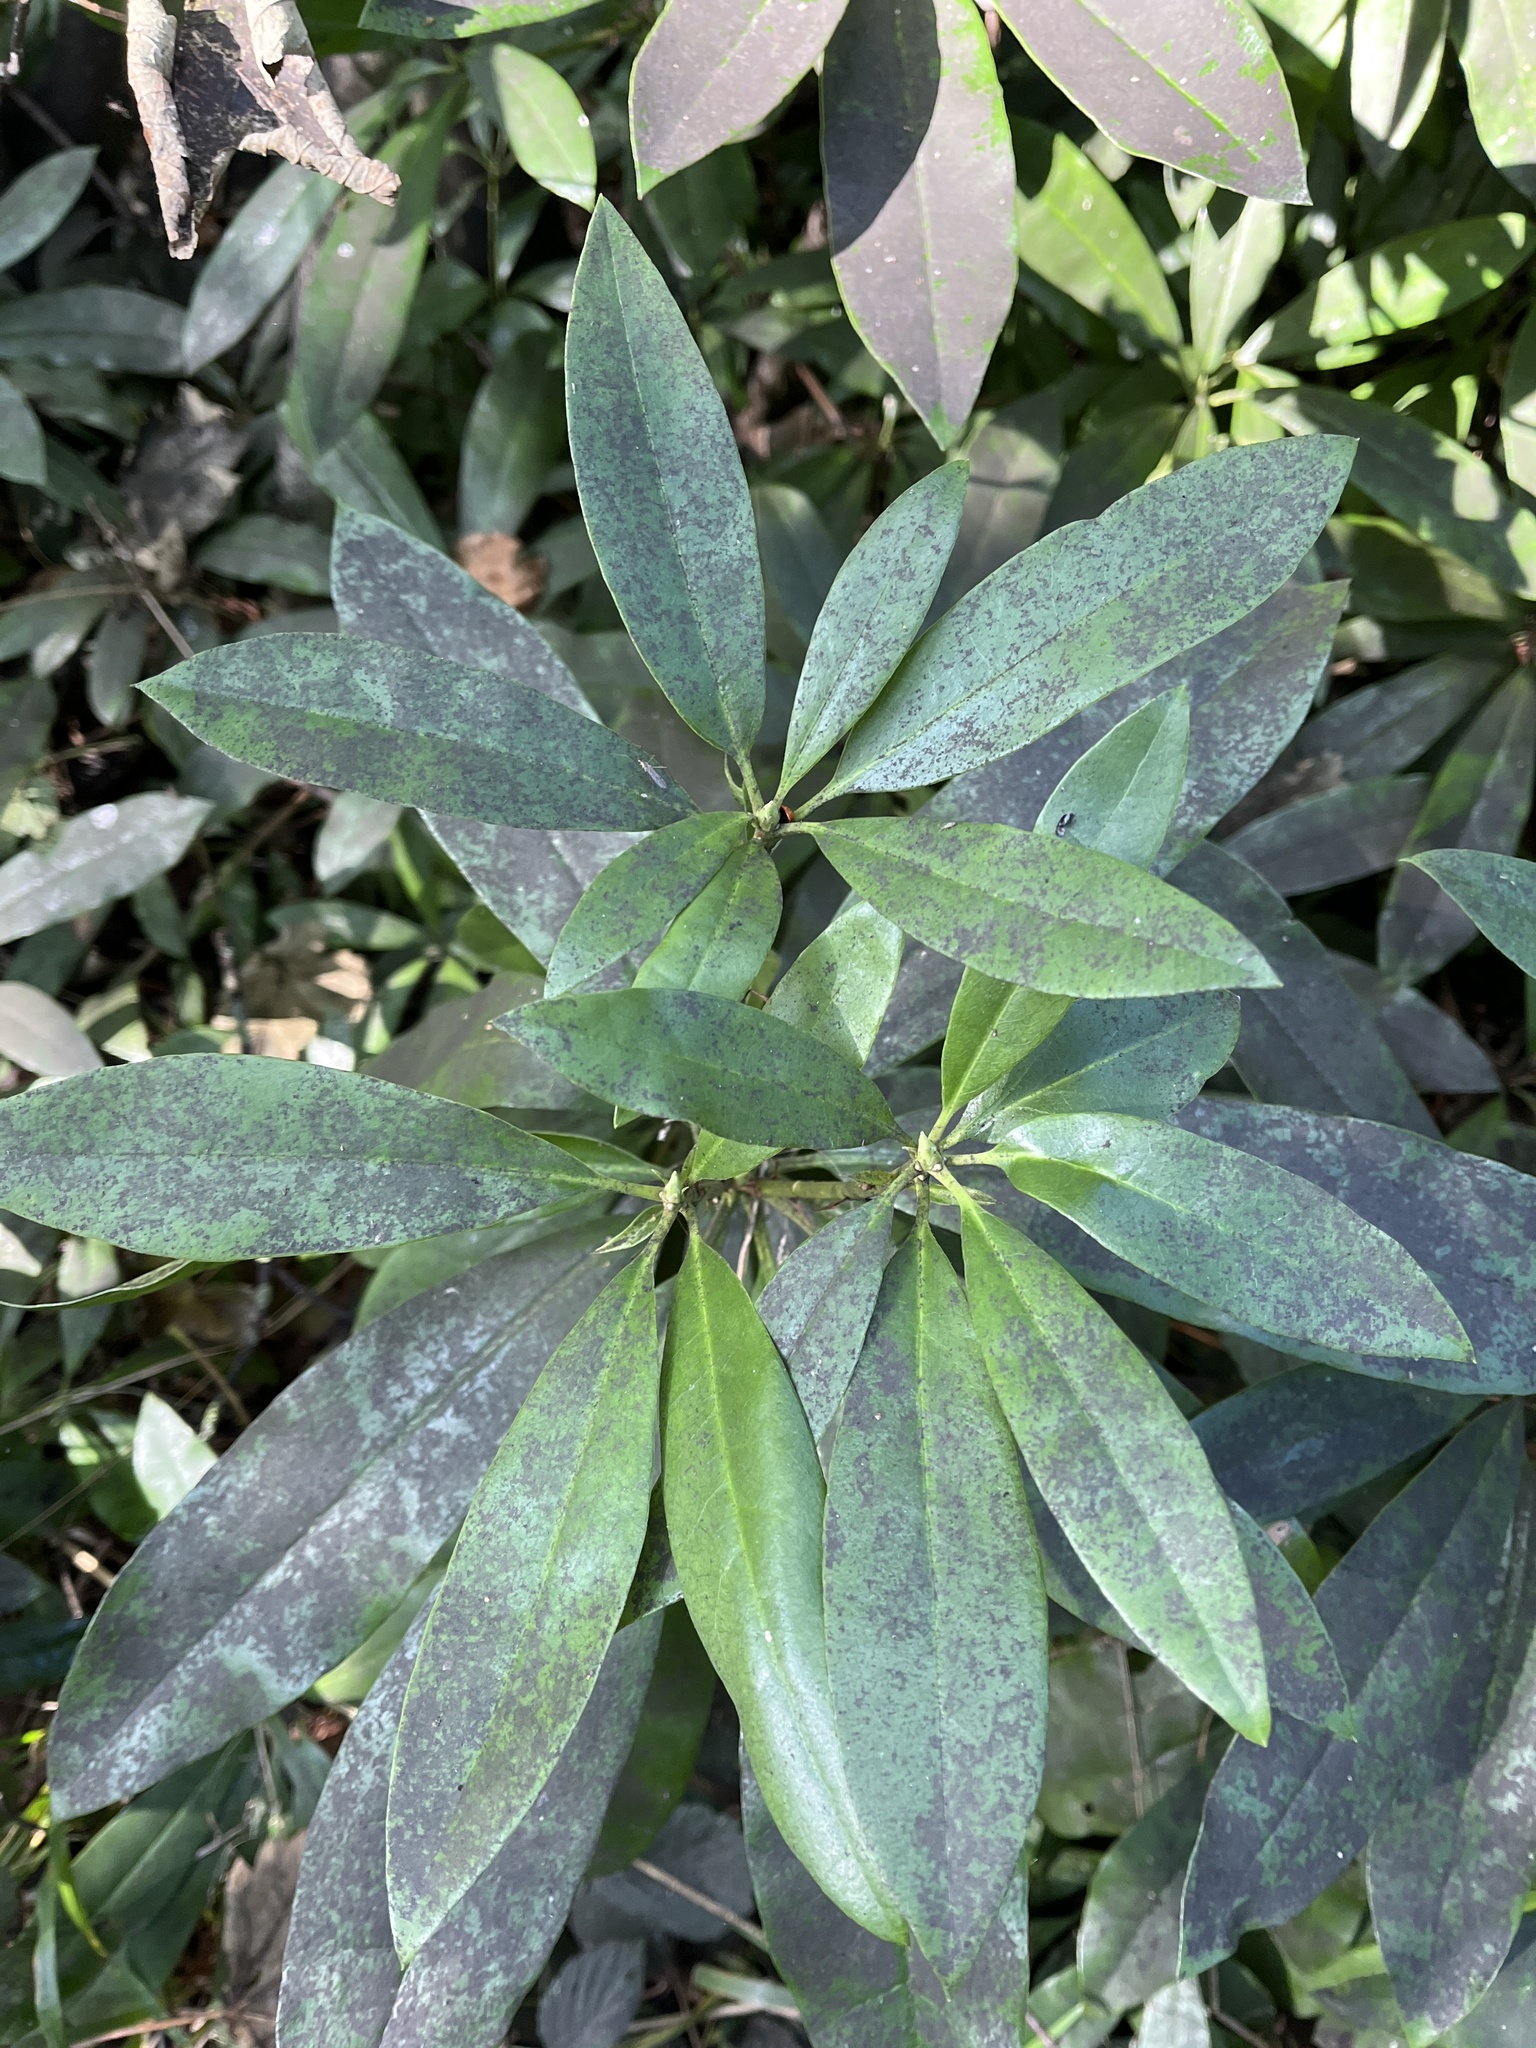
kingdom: Plantae
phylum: Tracheophyta
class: Magnoliopsida
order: Ericales
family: Ericaceae
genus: Rhododendron
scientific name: Rhododendron ponticum
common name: Rhododendron
